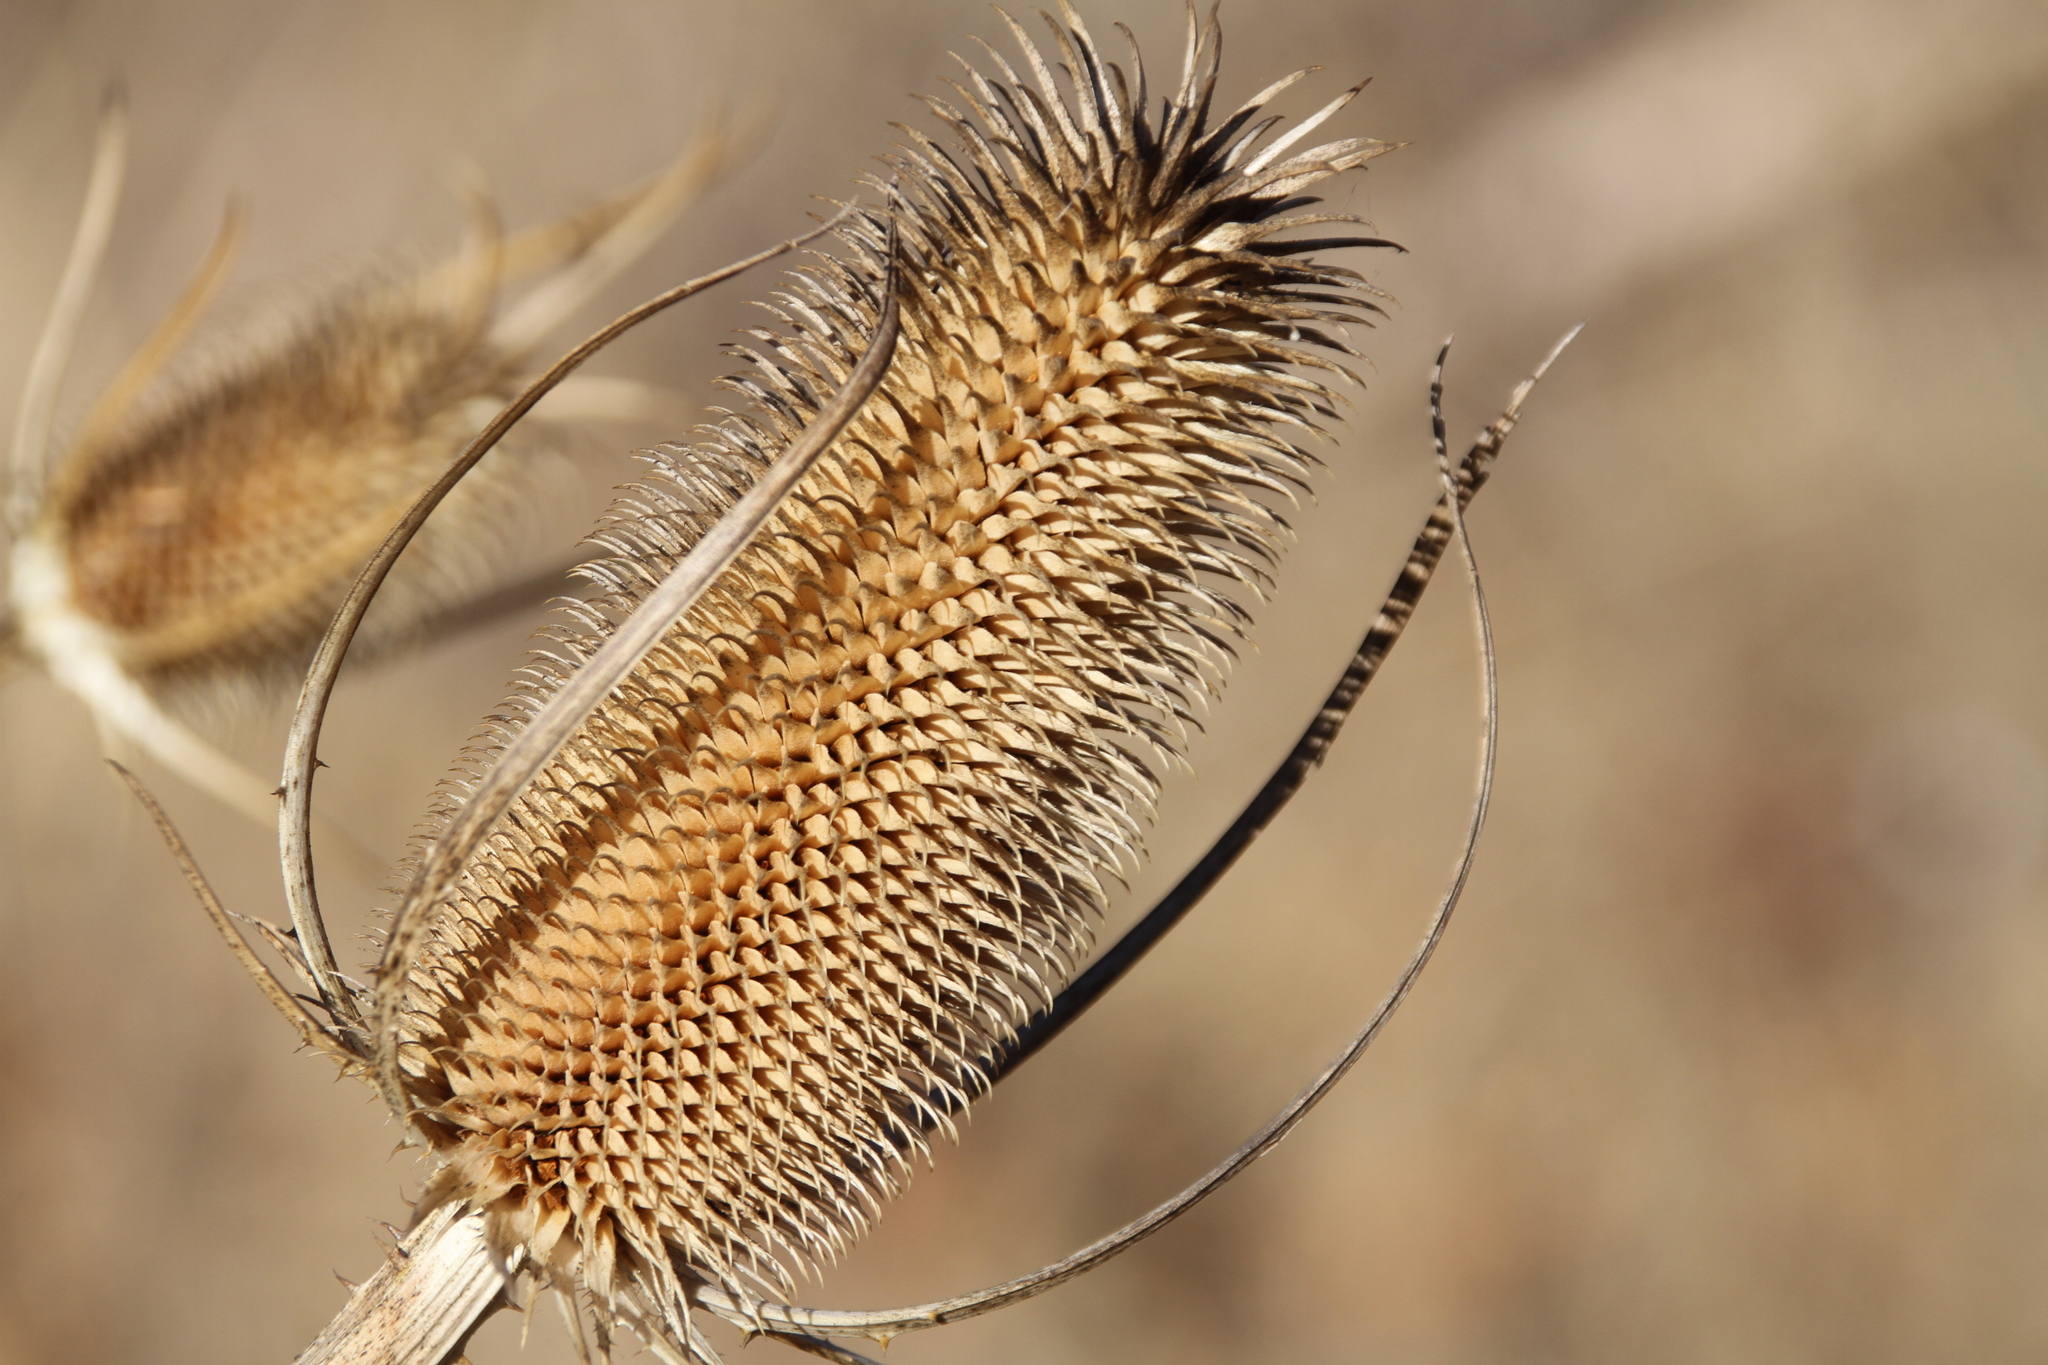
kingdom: Plantae
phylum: Tracheophyta
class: Magnoliopsida
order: Dipsacales
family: Caprifoliaceae
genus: Dipsacus
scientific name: Dipsacus sativus
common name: Fuller's teasel
